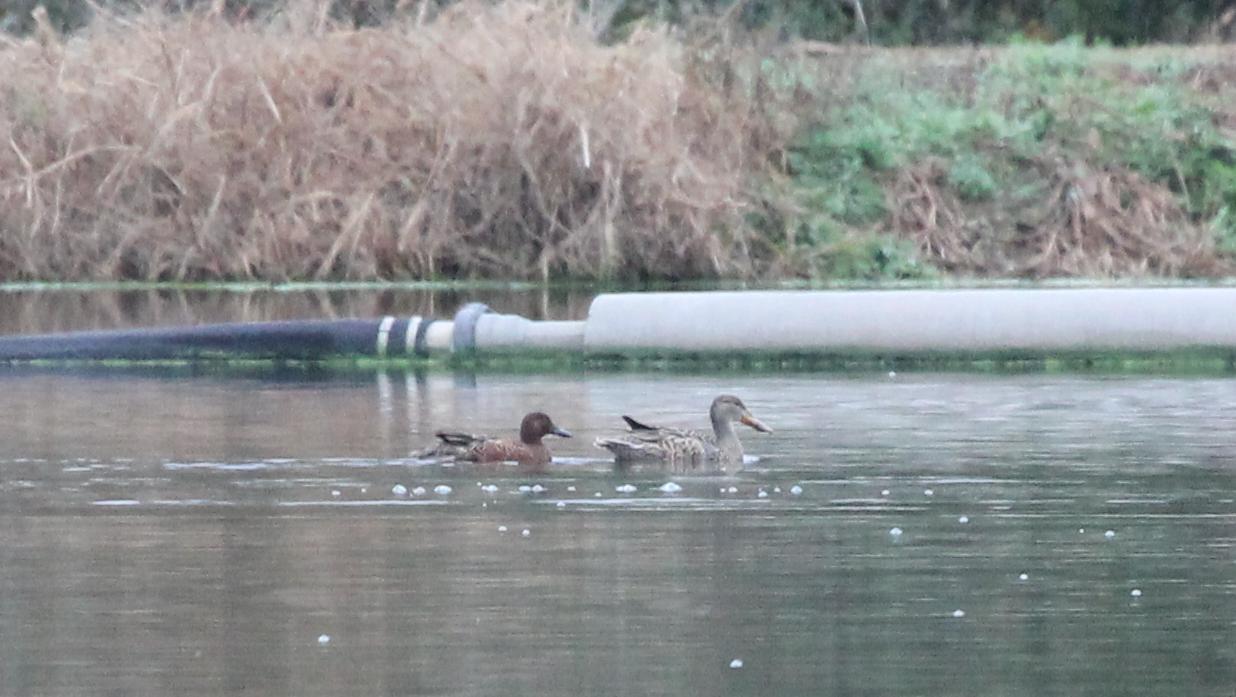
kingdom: Animalia
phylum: Chordata
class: Aves
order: Anseriformes
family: Anatidae
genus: Spatula
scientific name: Spatula cyanoptera
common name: Cinnamon teal
